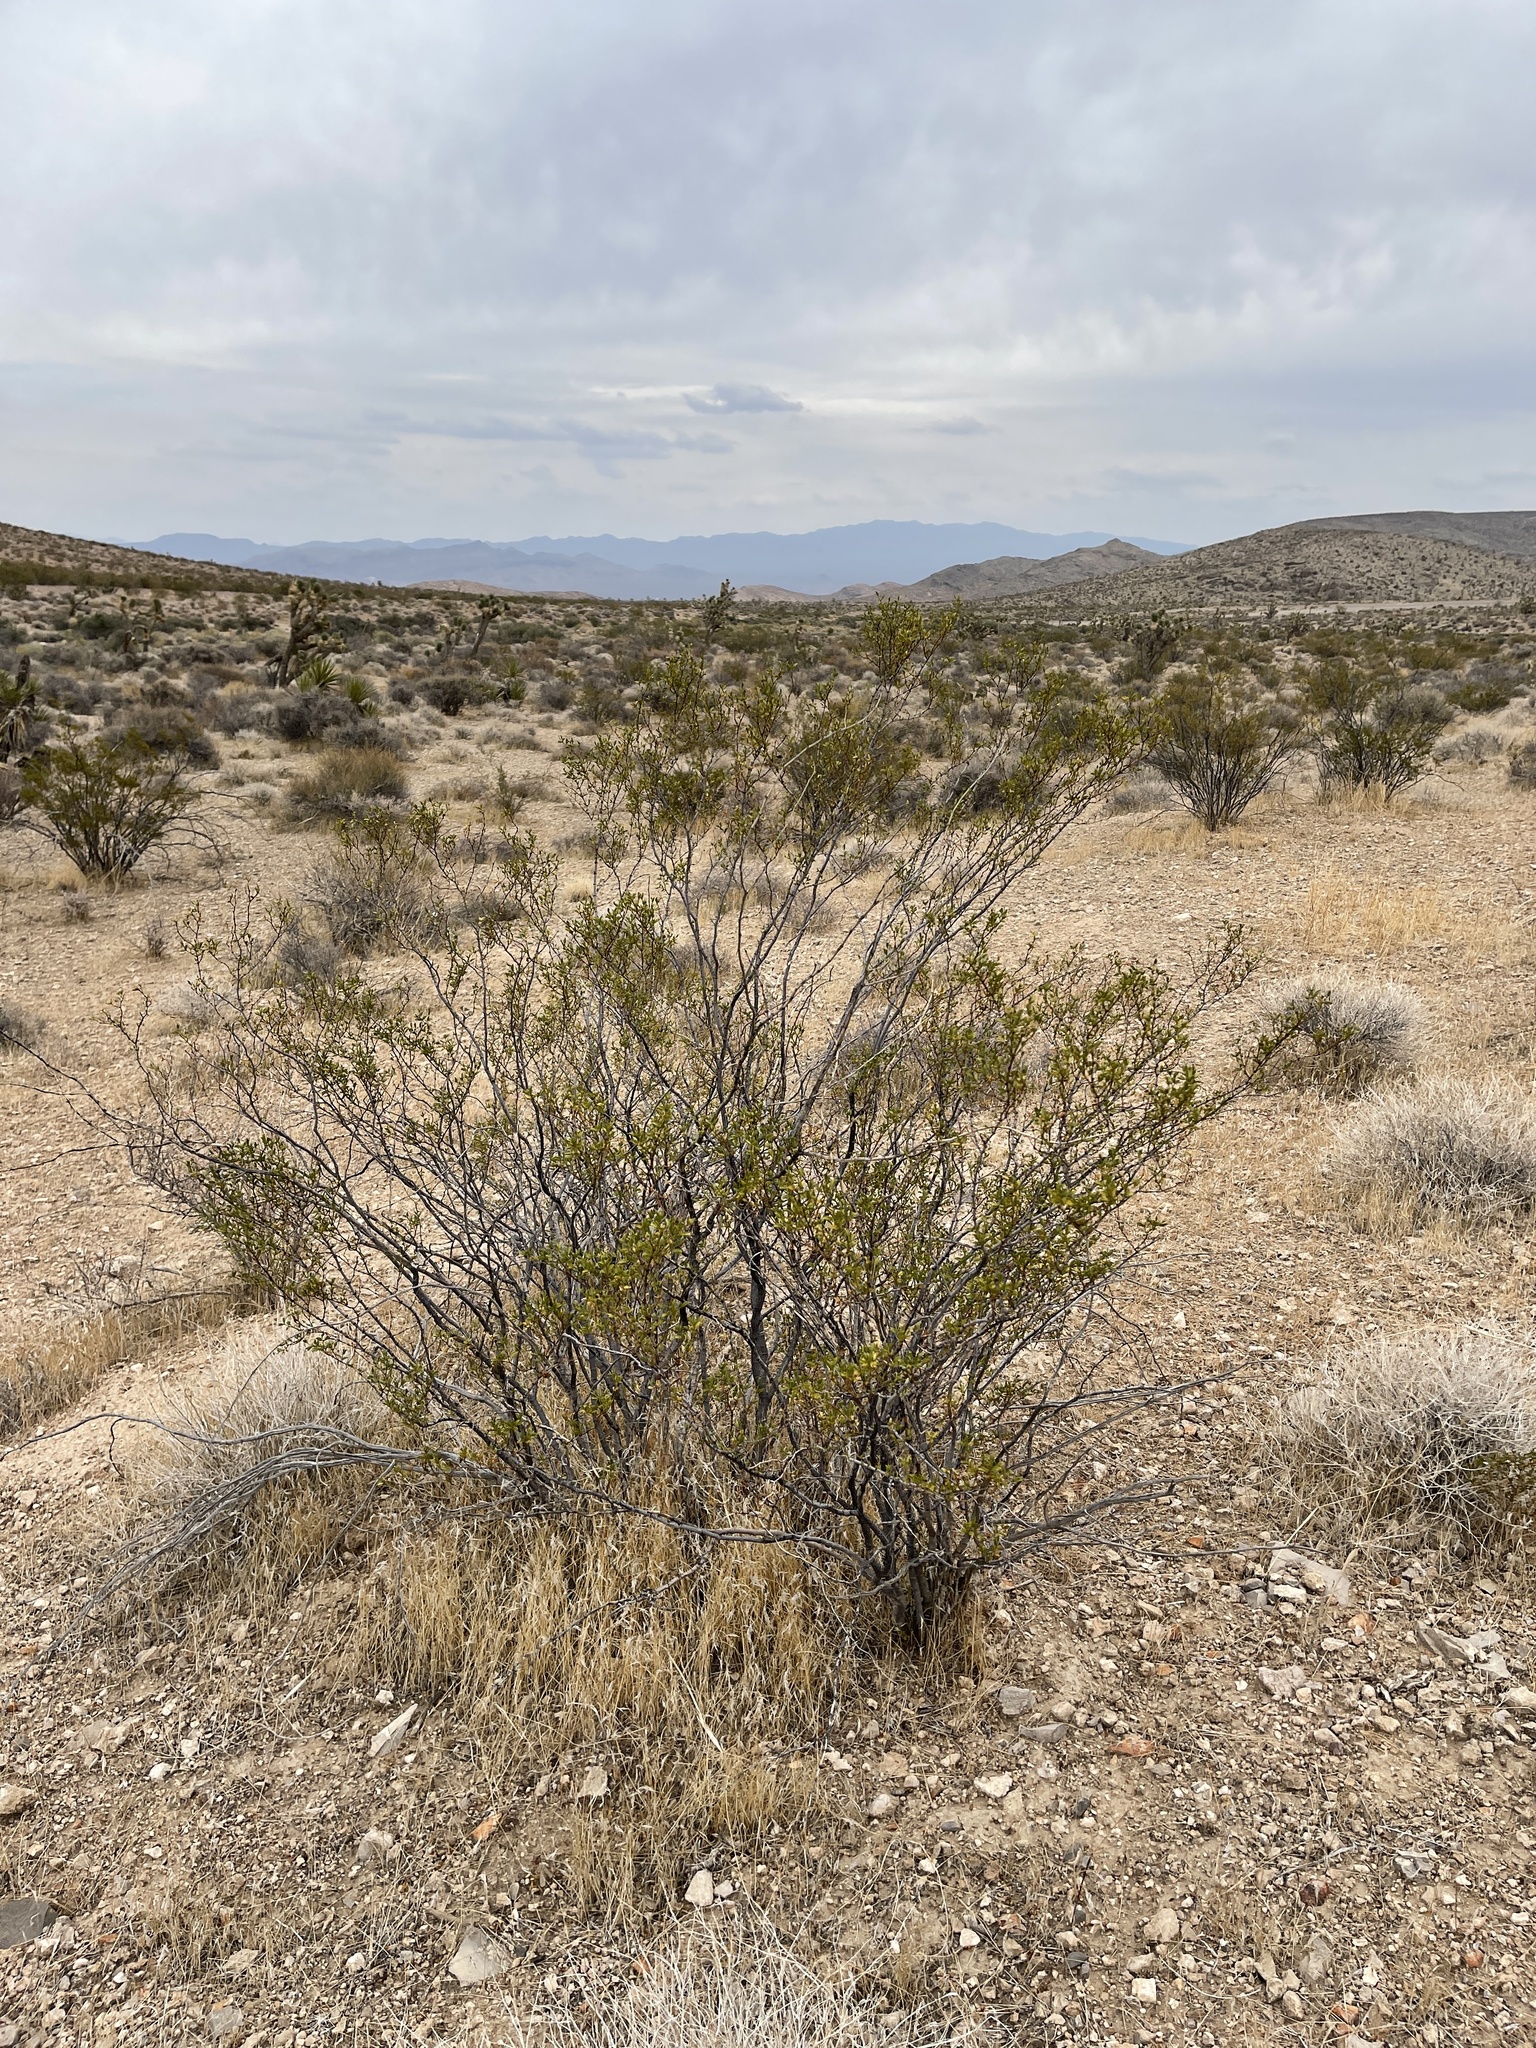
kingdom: Plantae
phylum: Tracheophyta
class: Magnoliopsida
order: Zygophyllales
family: Zygophyllaceae
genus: Larrea
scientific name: Larrea tridentata
